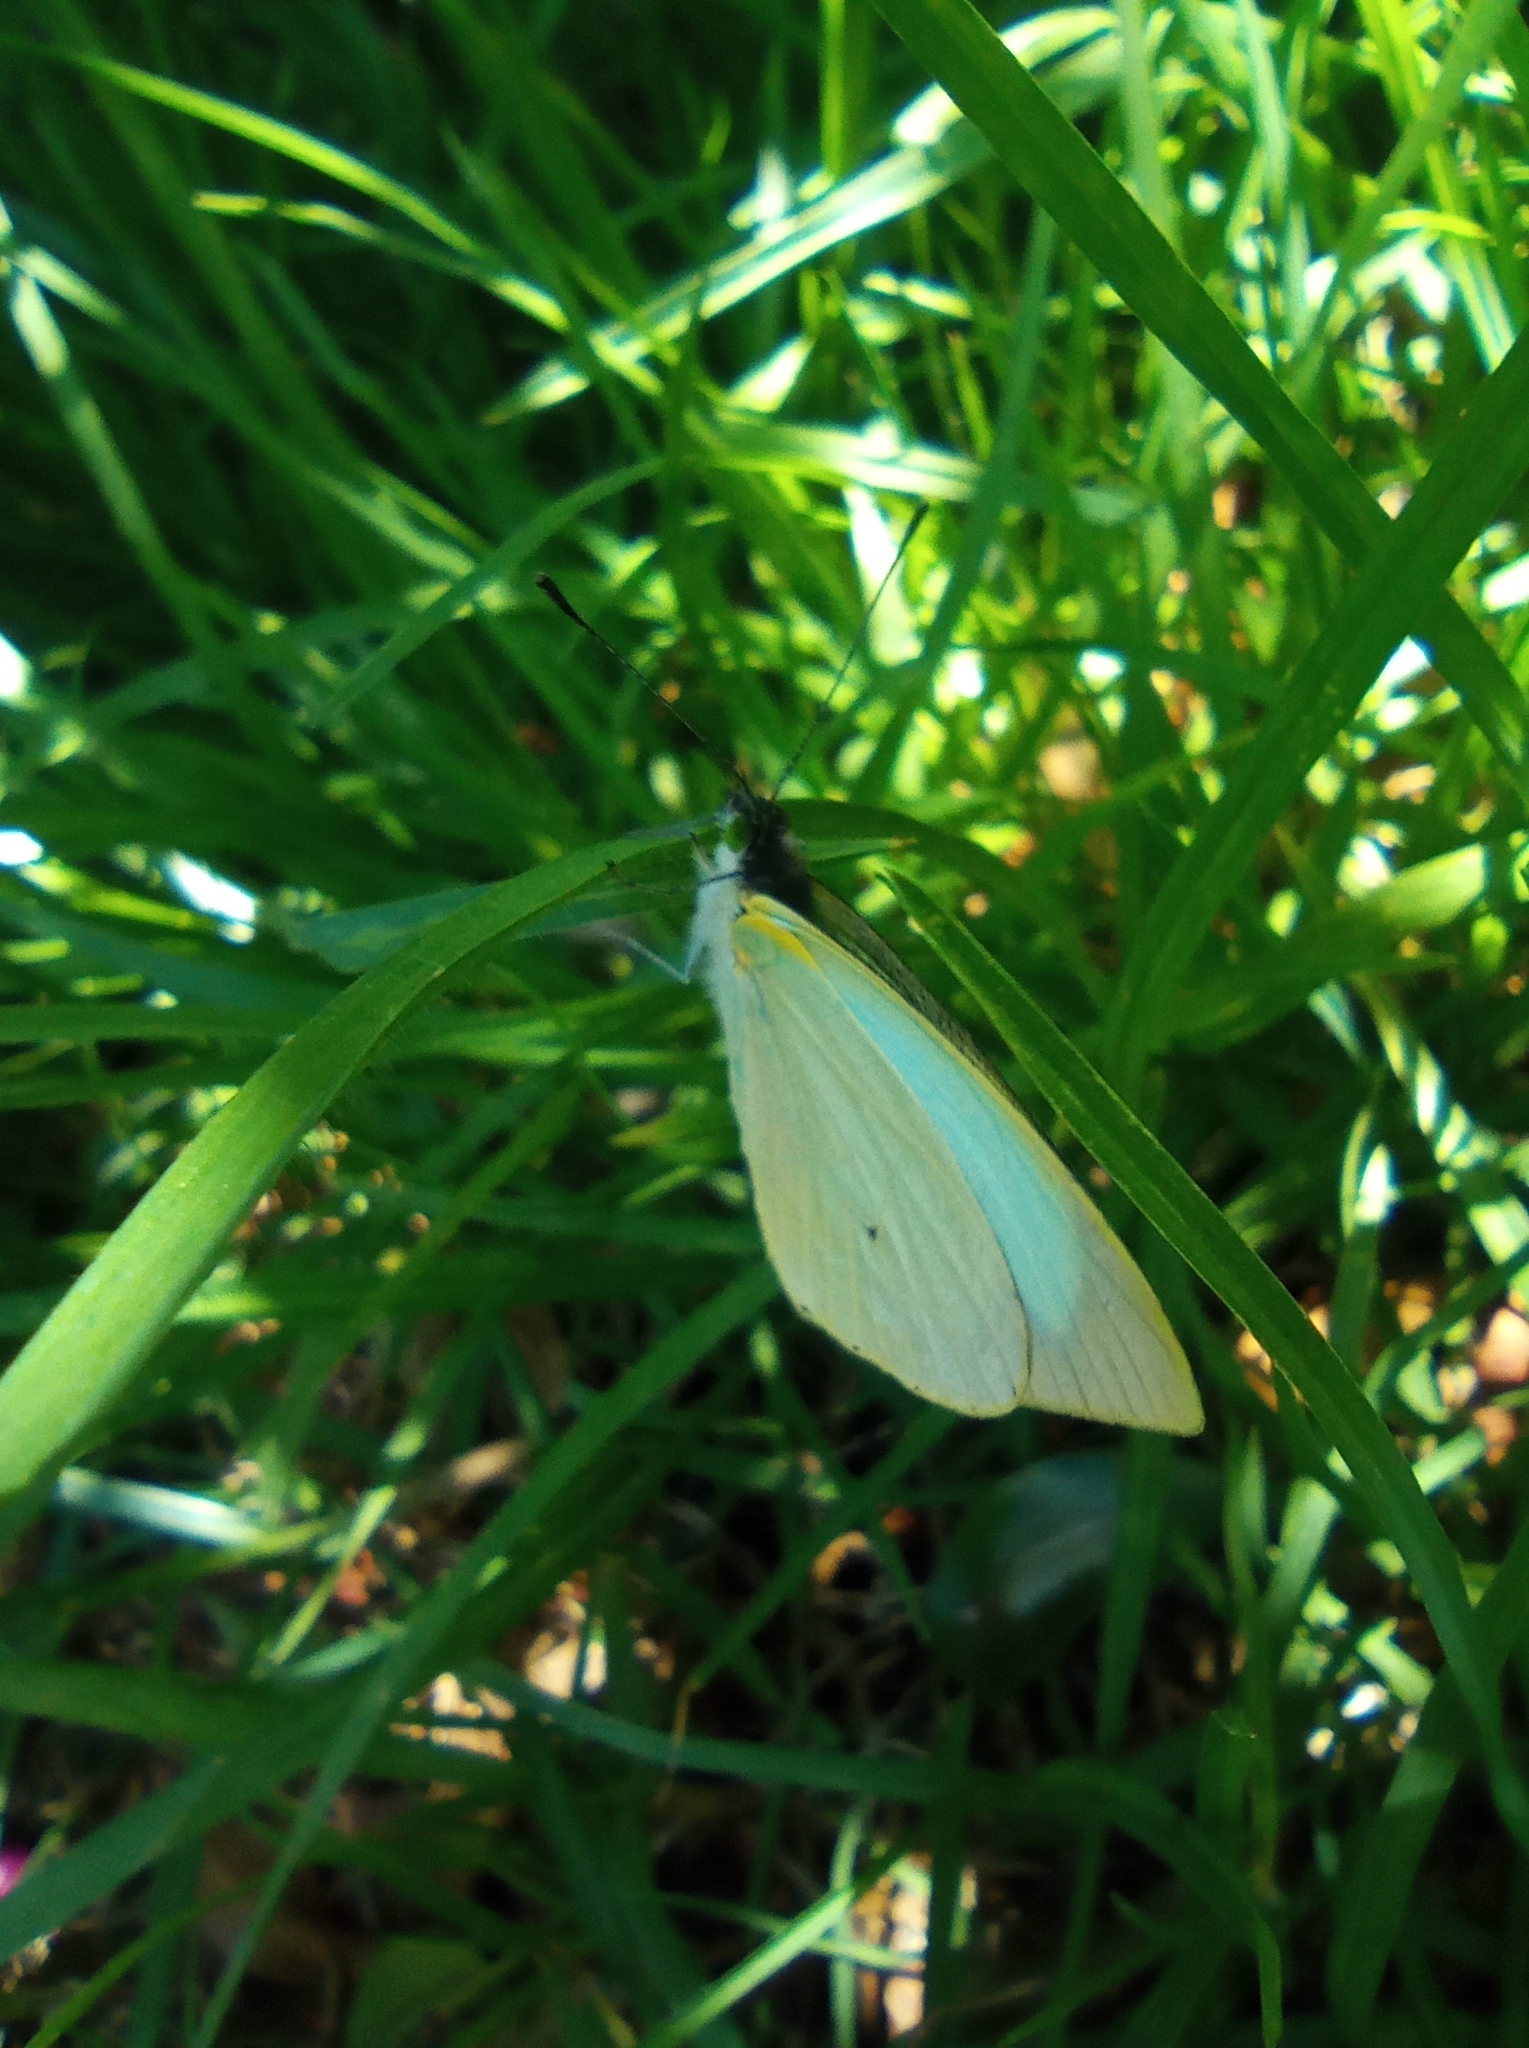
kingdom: Animalia
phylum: Arthropoda
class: Insecta
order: Lepidoptera
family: Pieridae
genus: Leptophobia
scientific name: Leptophobia aripa
